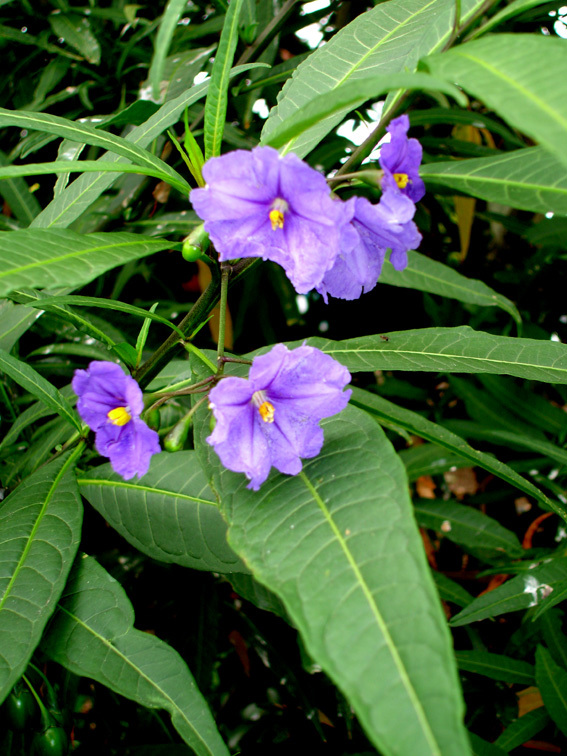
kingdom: Plantae
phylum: Tracheophyta
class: Magnoliopsida
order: Solanales
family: Solanaceae
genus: Solanum
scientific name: Solanum laciniatum
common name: Kangaroo-apple
